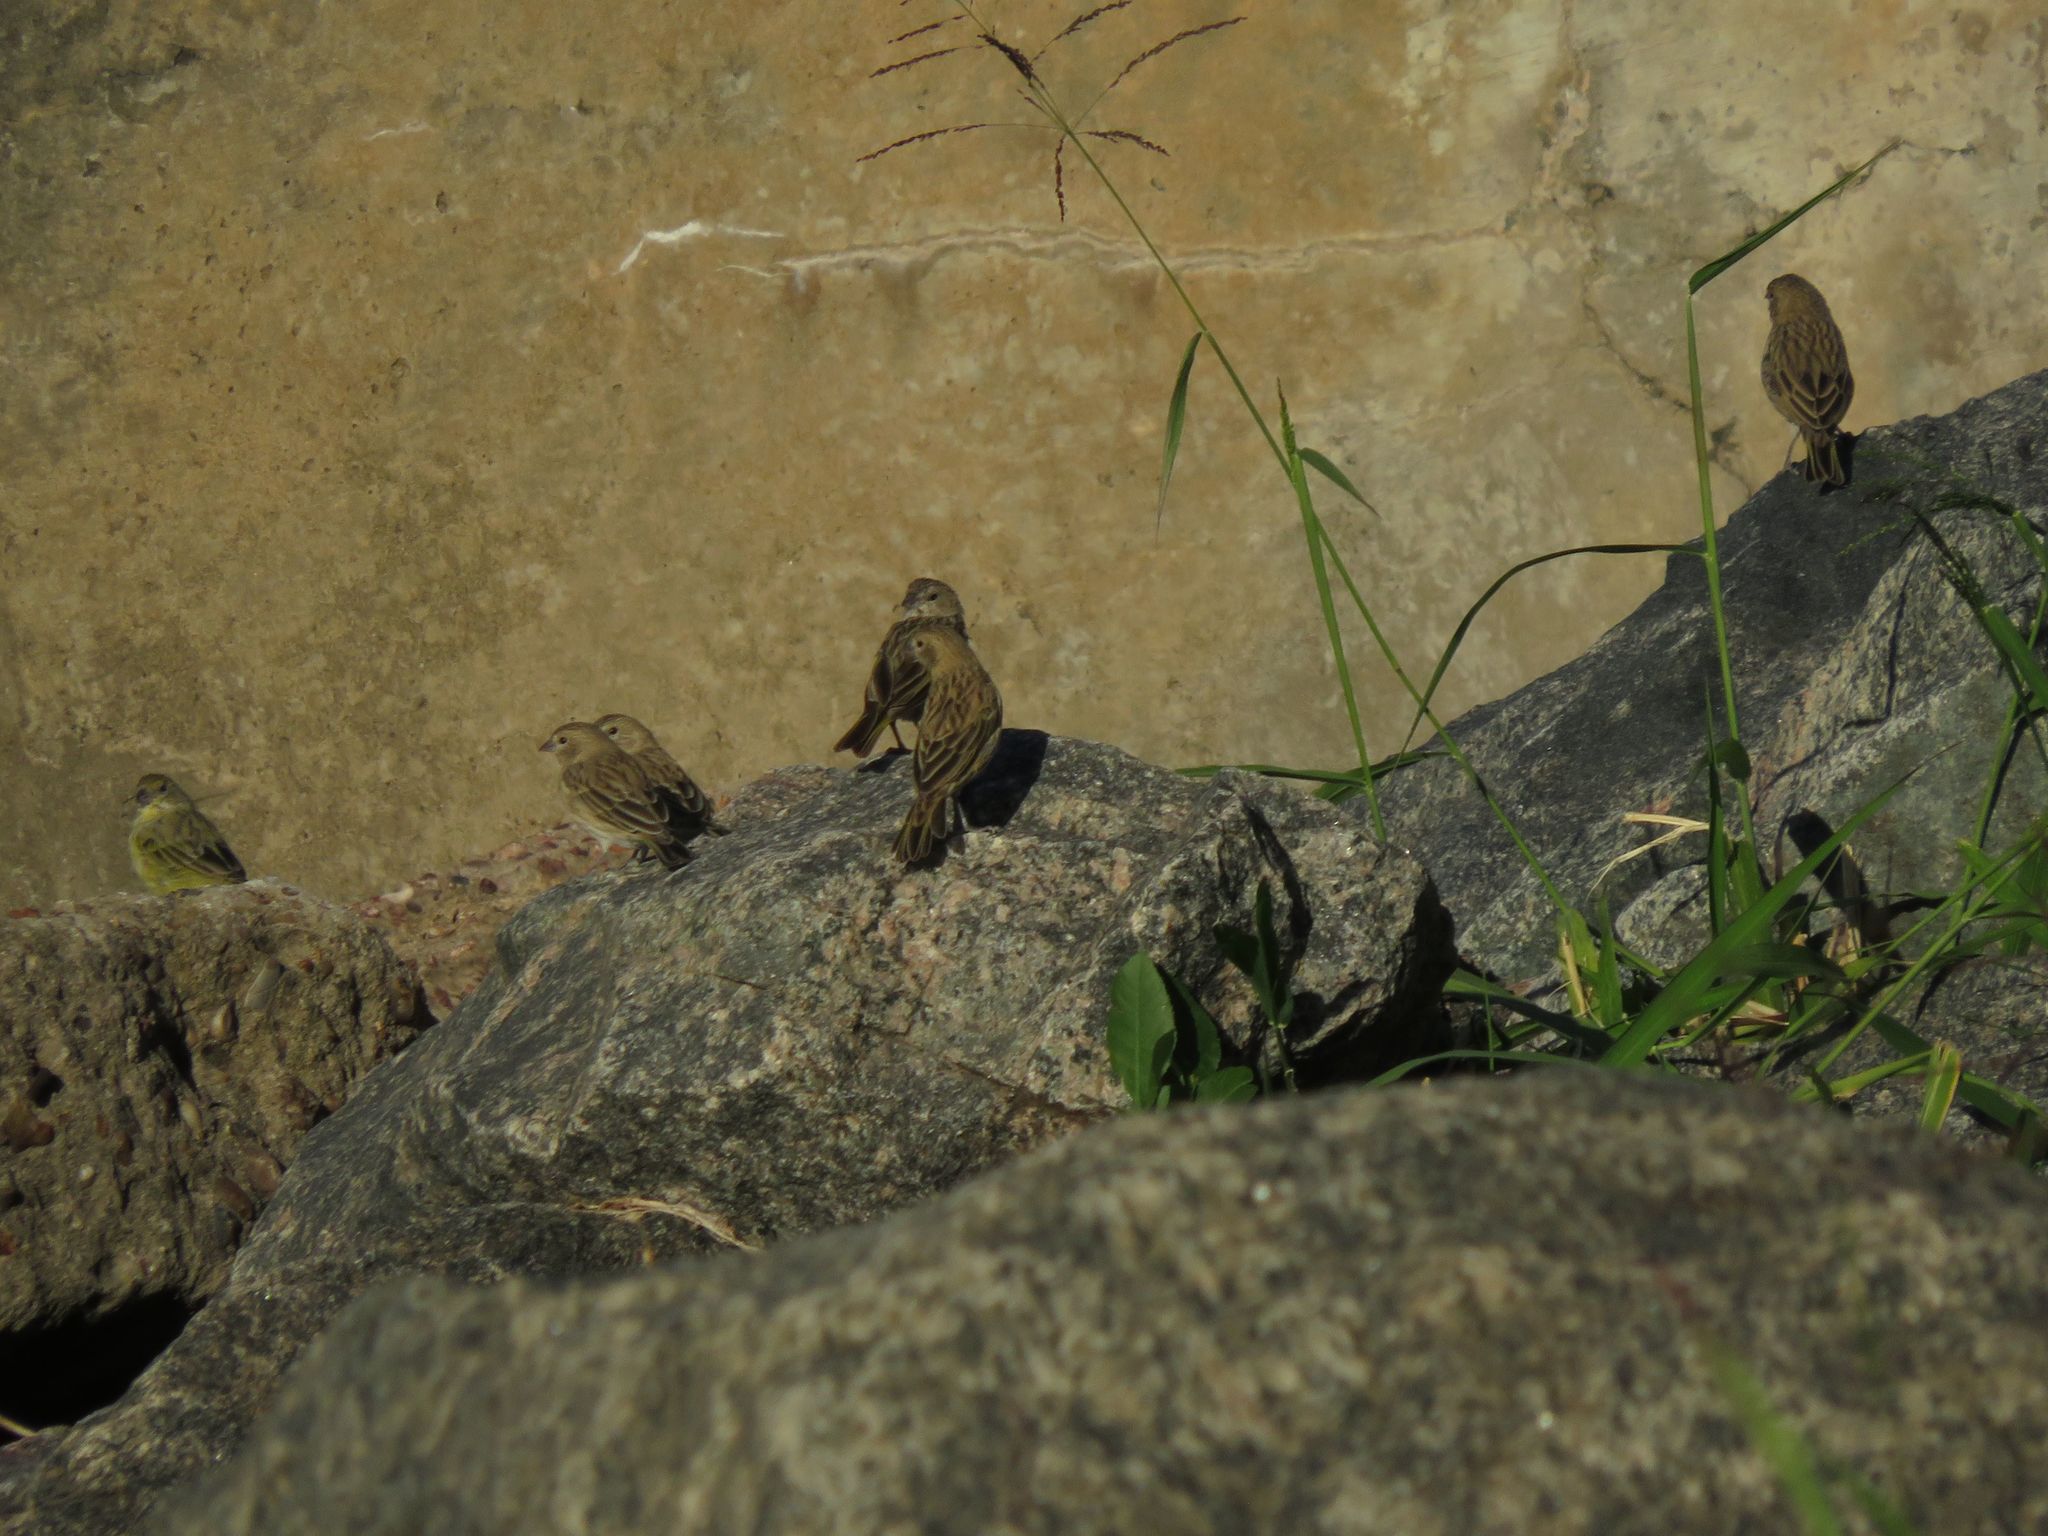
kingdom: Animalia
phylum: Chordata
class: Aves
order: Passeriformes
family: Thraupidae
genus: Sicalis
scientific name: Sicalis flaveola
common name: Saffron finch
